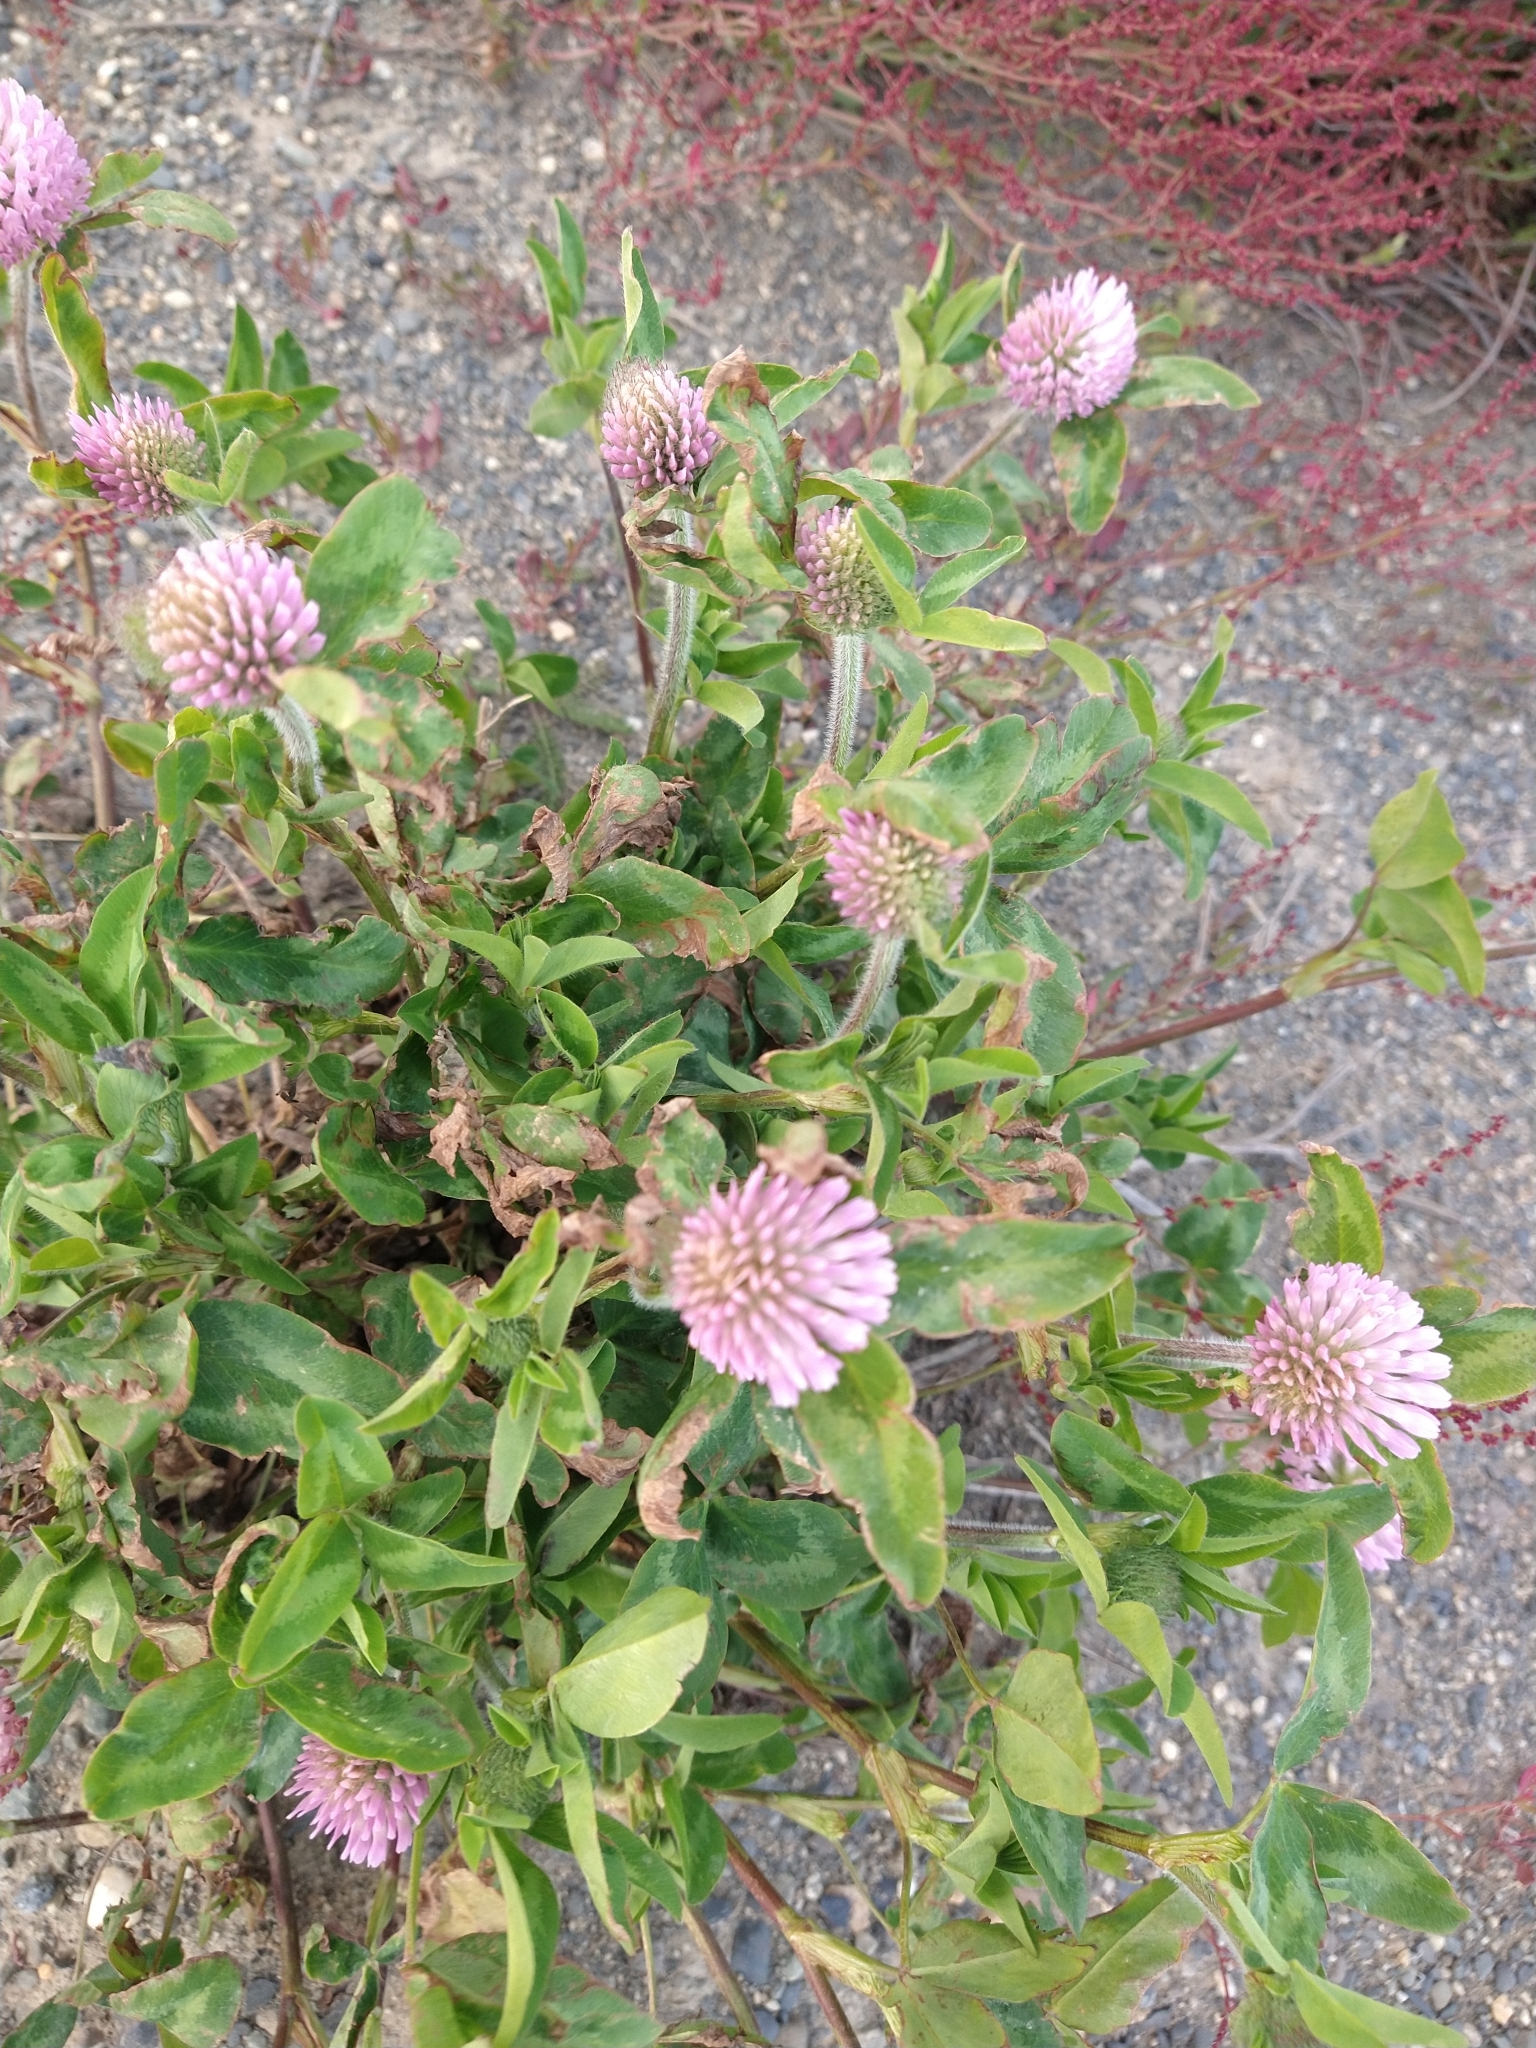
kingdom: Plantae
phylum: Tracheophyta
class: Magnoliopsida
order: Fabales
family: Fabaceae
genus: Trifolium
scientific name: Trifolium pratense
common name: Red clover
